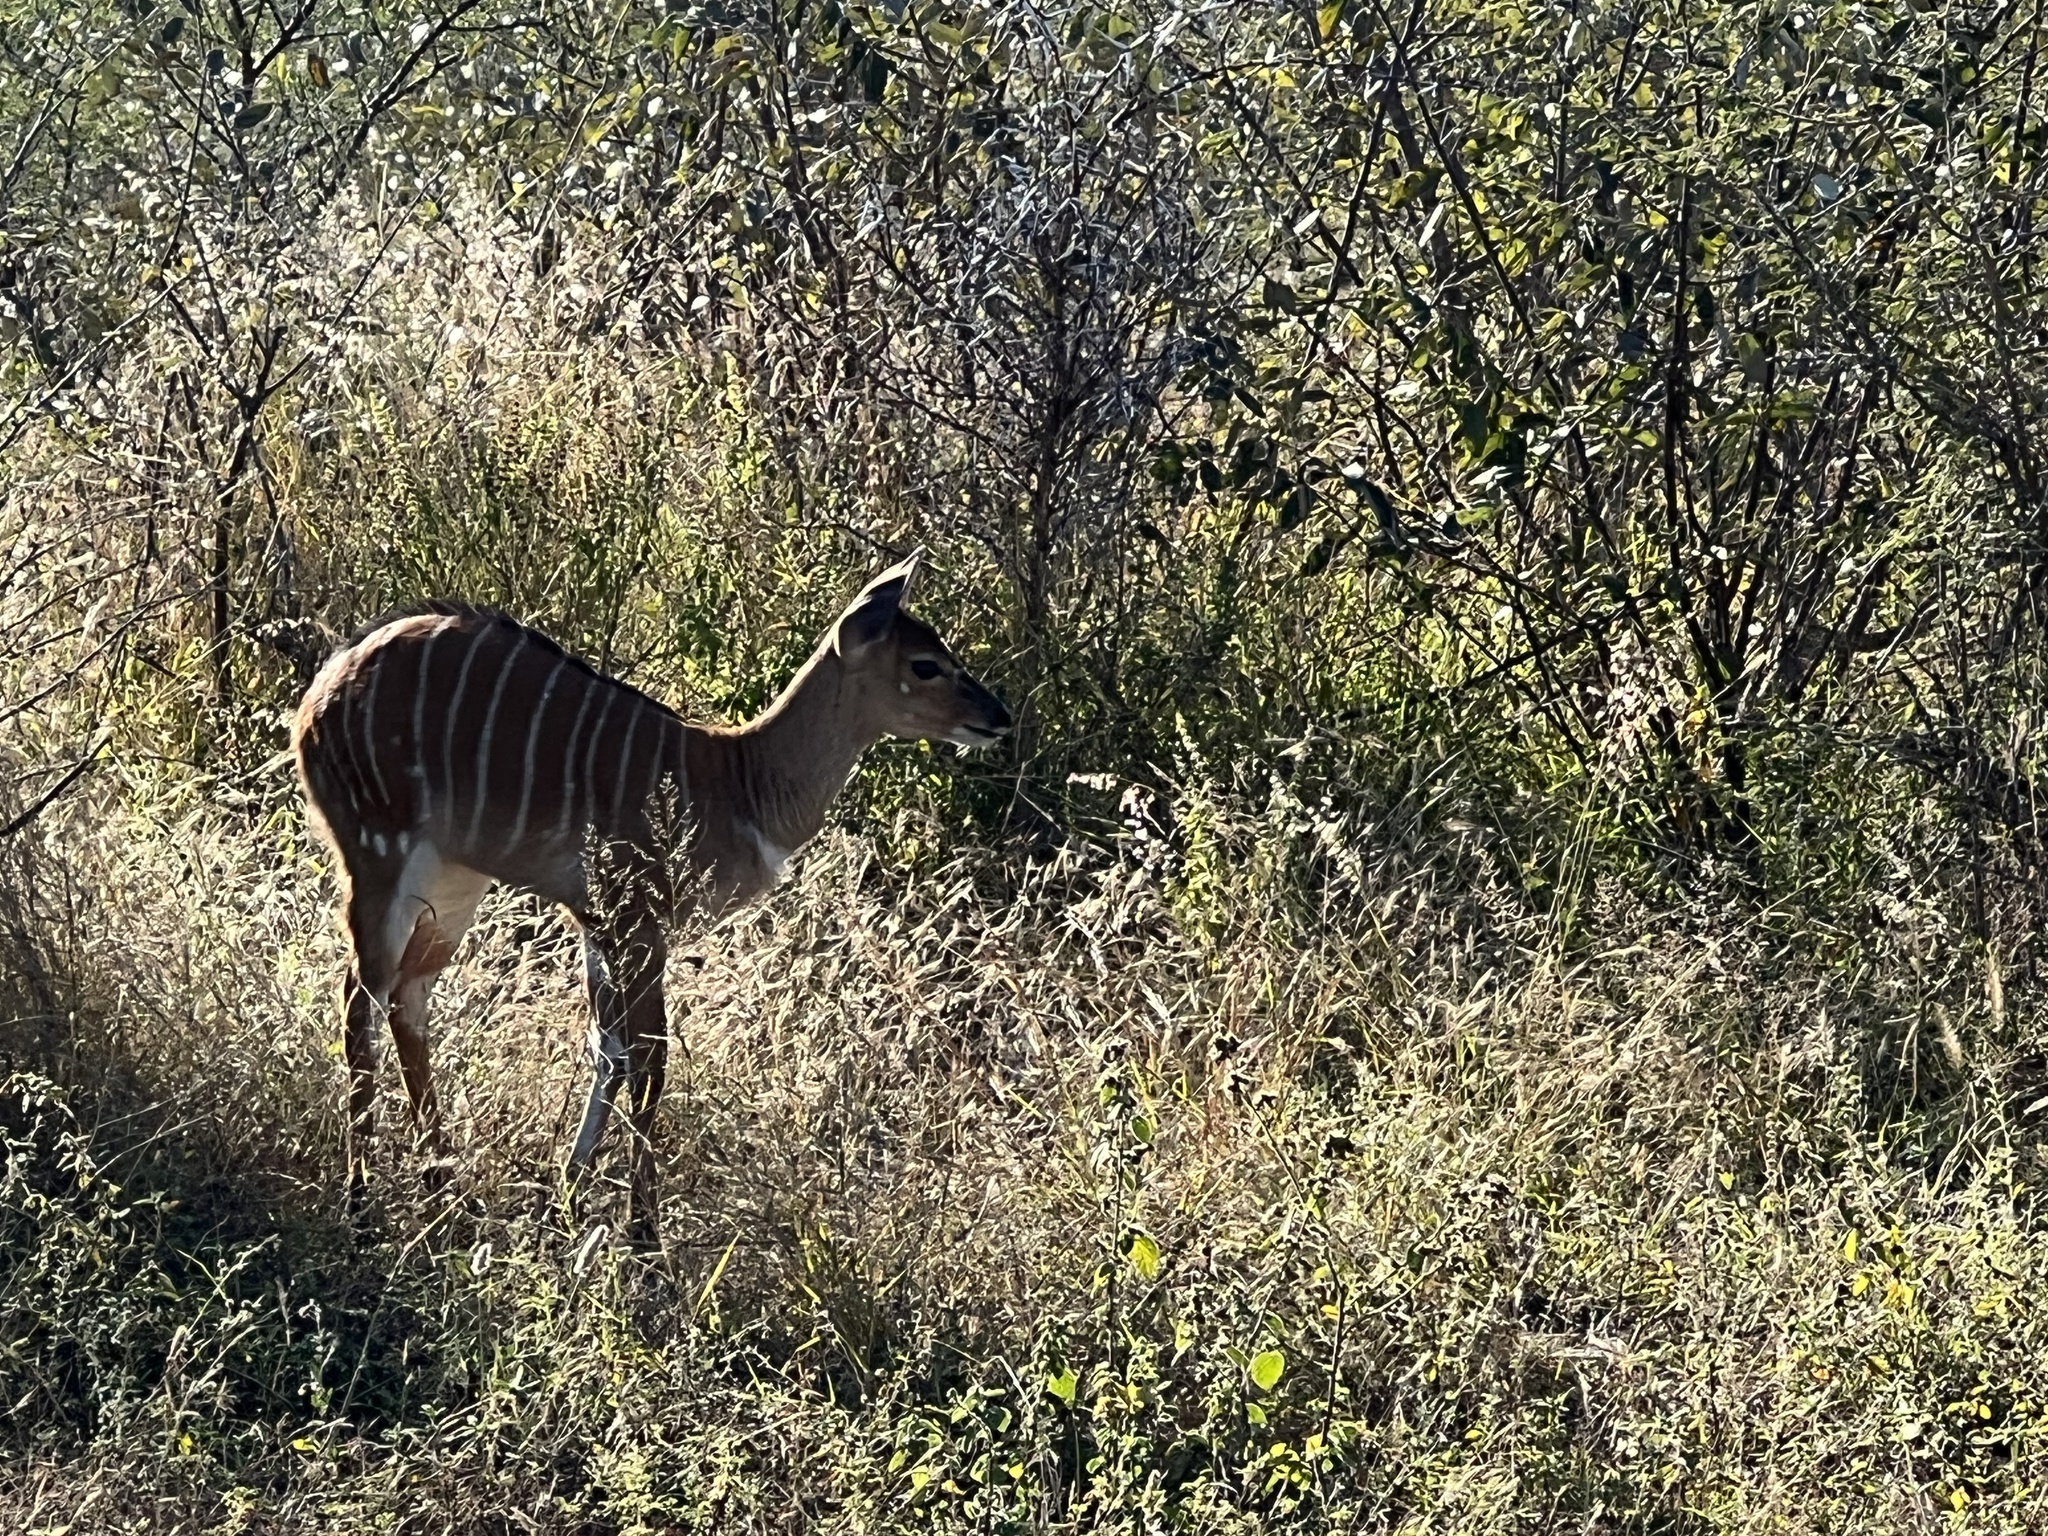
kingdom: Animalia
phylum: Chordata
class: Mammalia
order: Artiodactyla
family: Bovidae
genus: Tragelaphus
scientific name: Tragelaphus angasii
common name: Nyala
